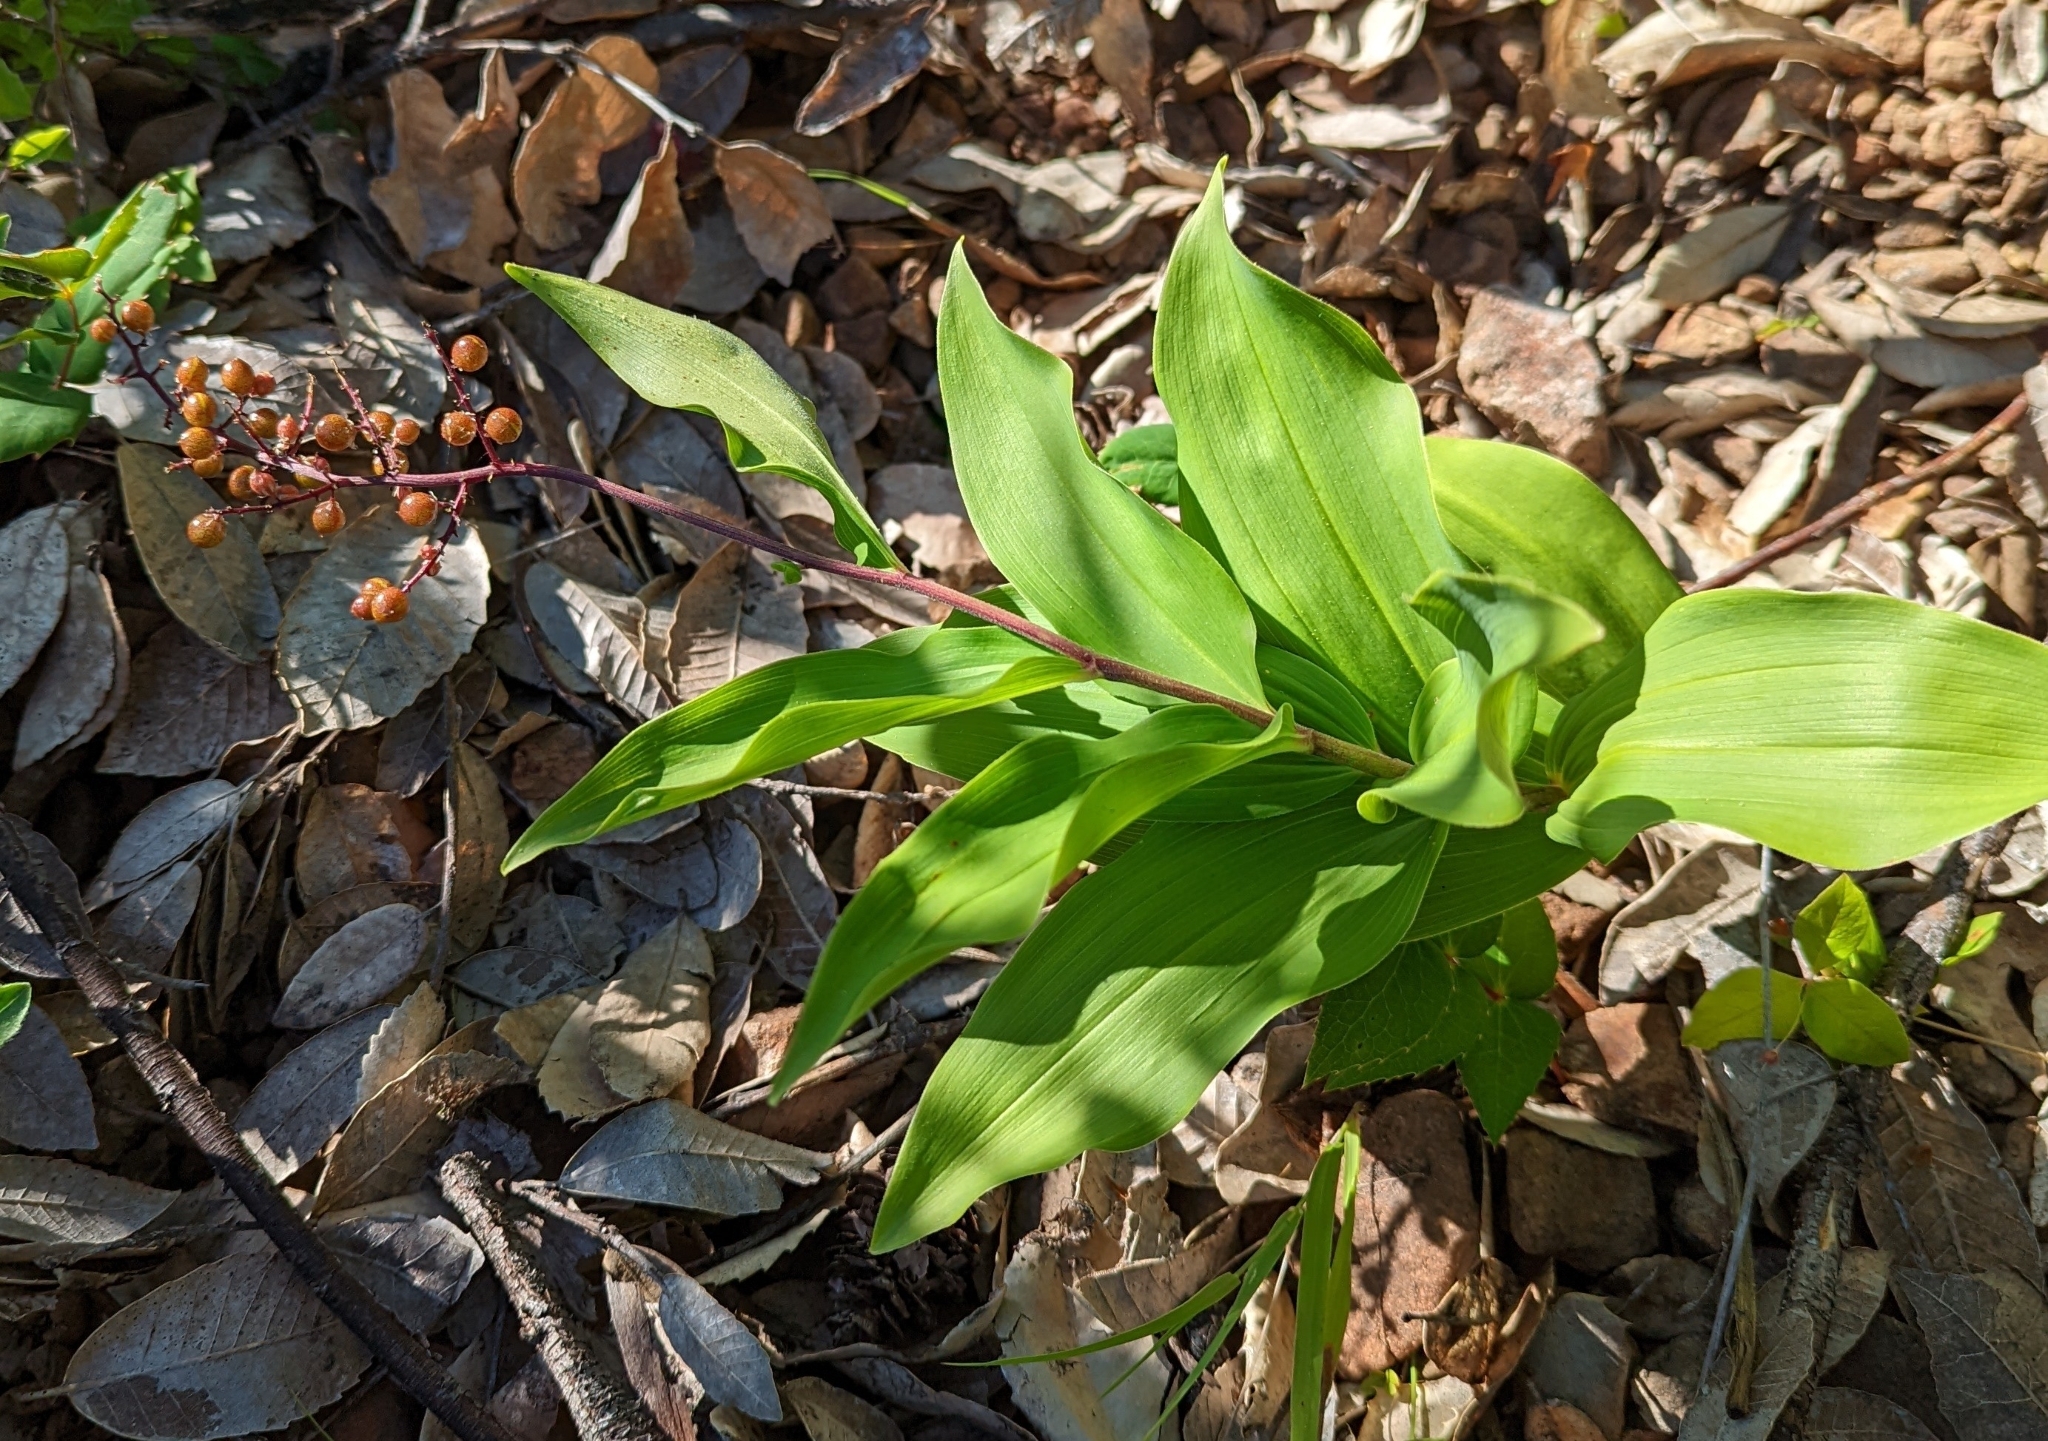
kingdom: Plantae
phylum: Tracheophyta
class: Liliopsida
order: Asparagales
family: Asparagaceae
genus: Maianthemum
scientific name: Maianthemum racemosum
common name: False spikenard
